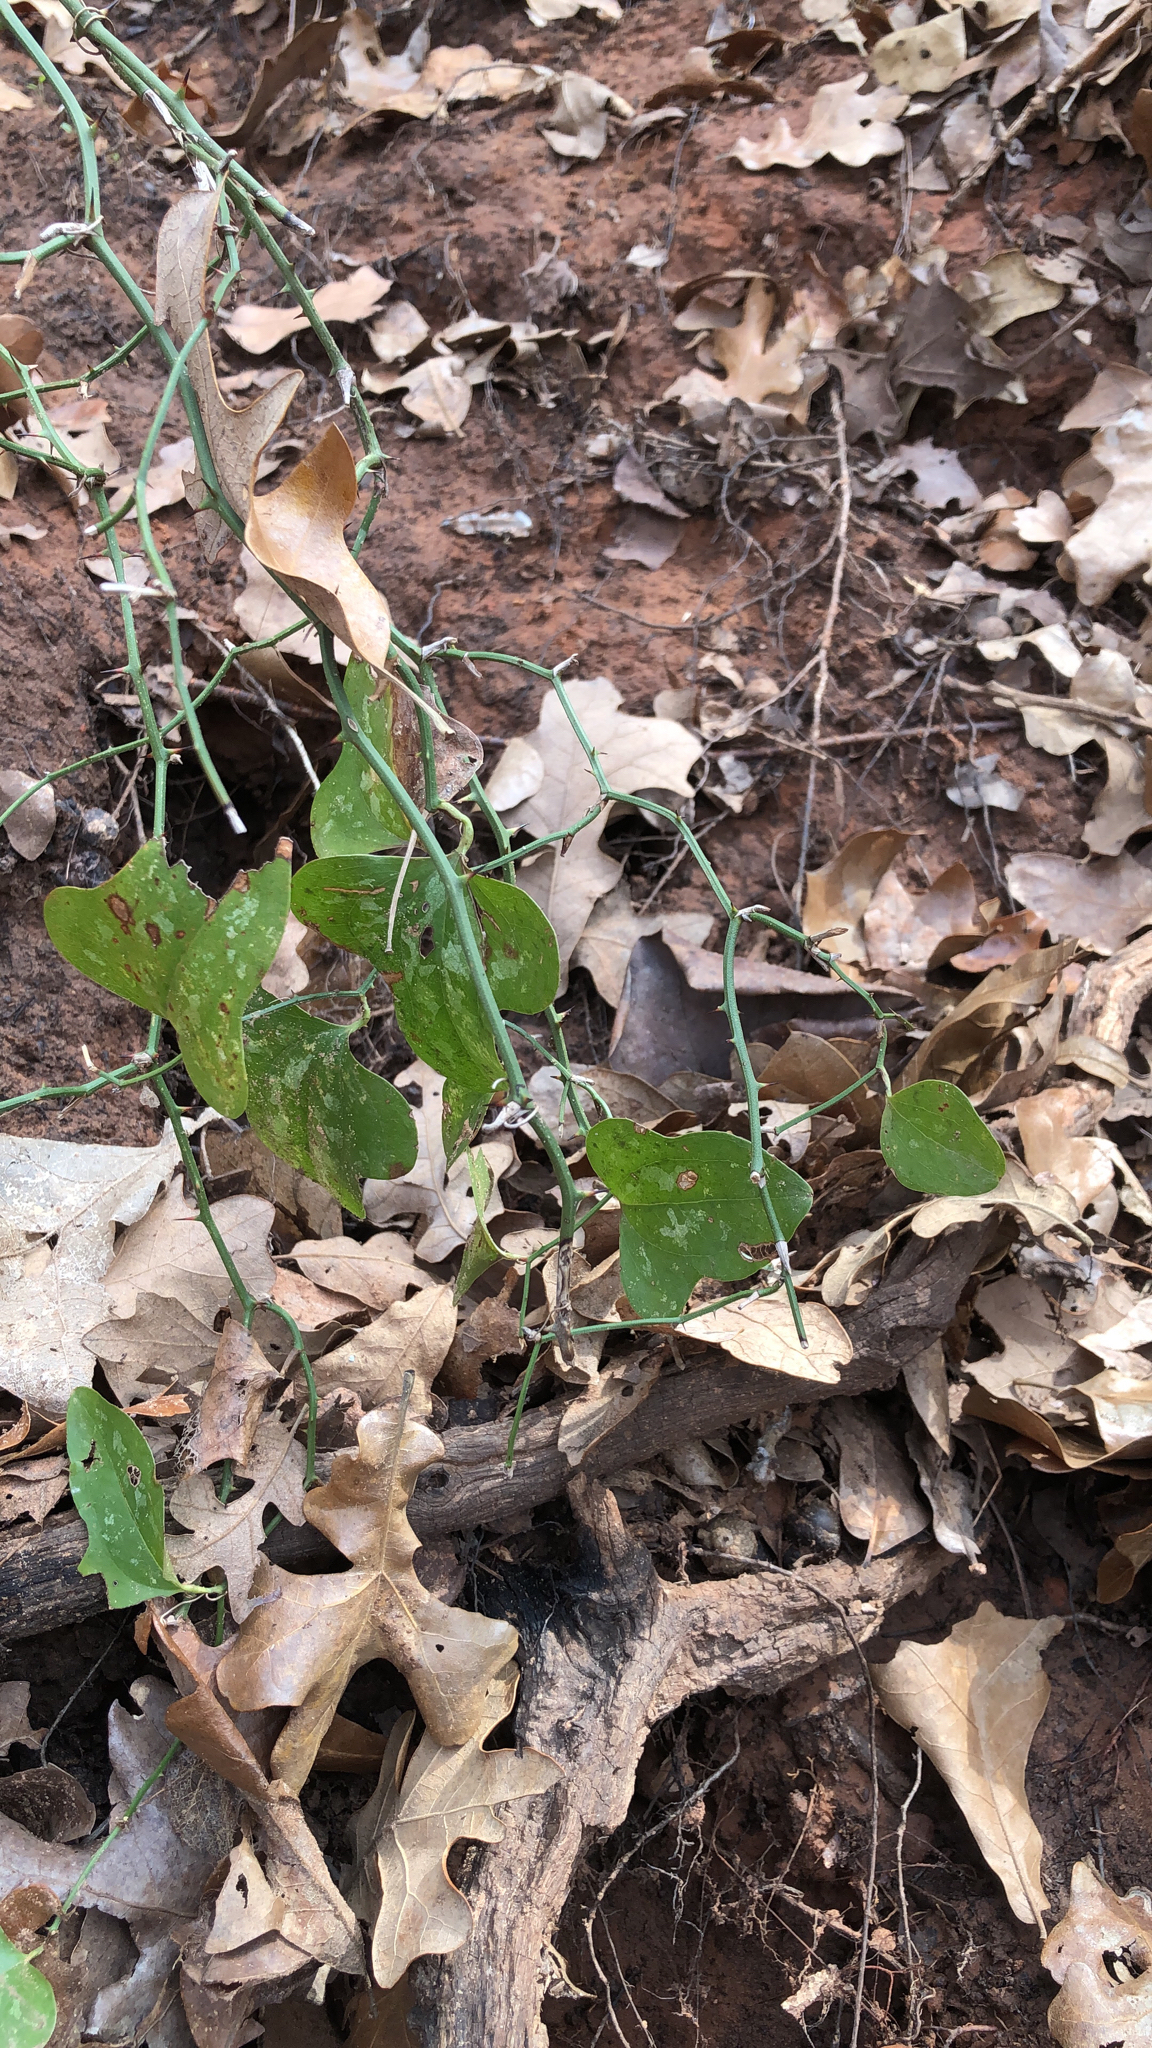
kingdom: Plantae
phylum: Tracheophyta
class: Liliopsida
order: Liliales
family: Smilacaceae
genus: Smilax
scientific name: Smilax bona-nox
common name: Catbrier
